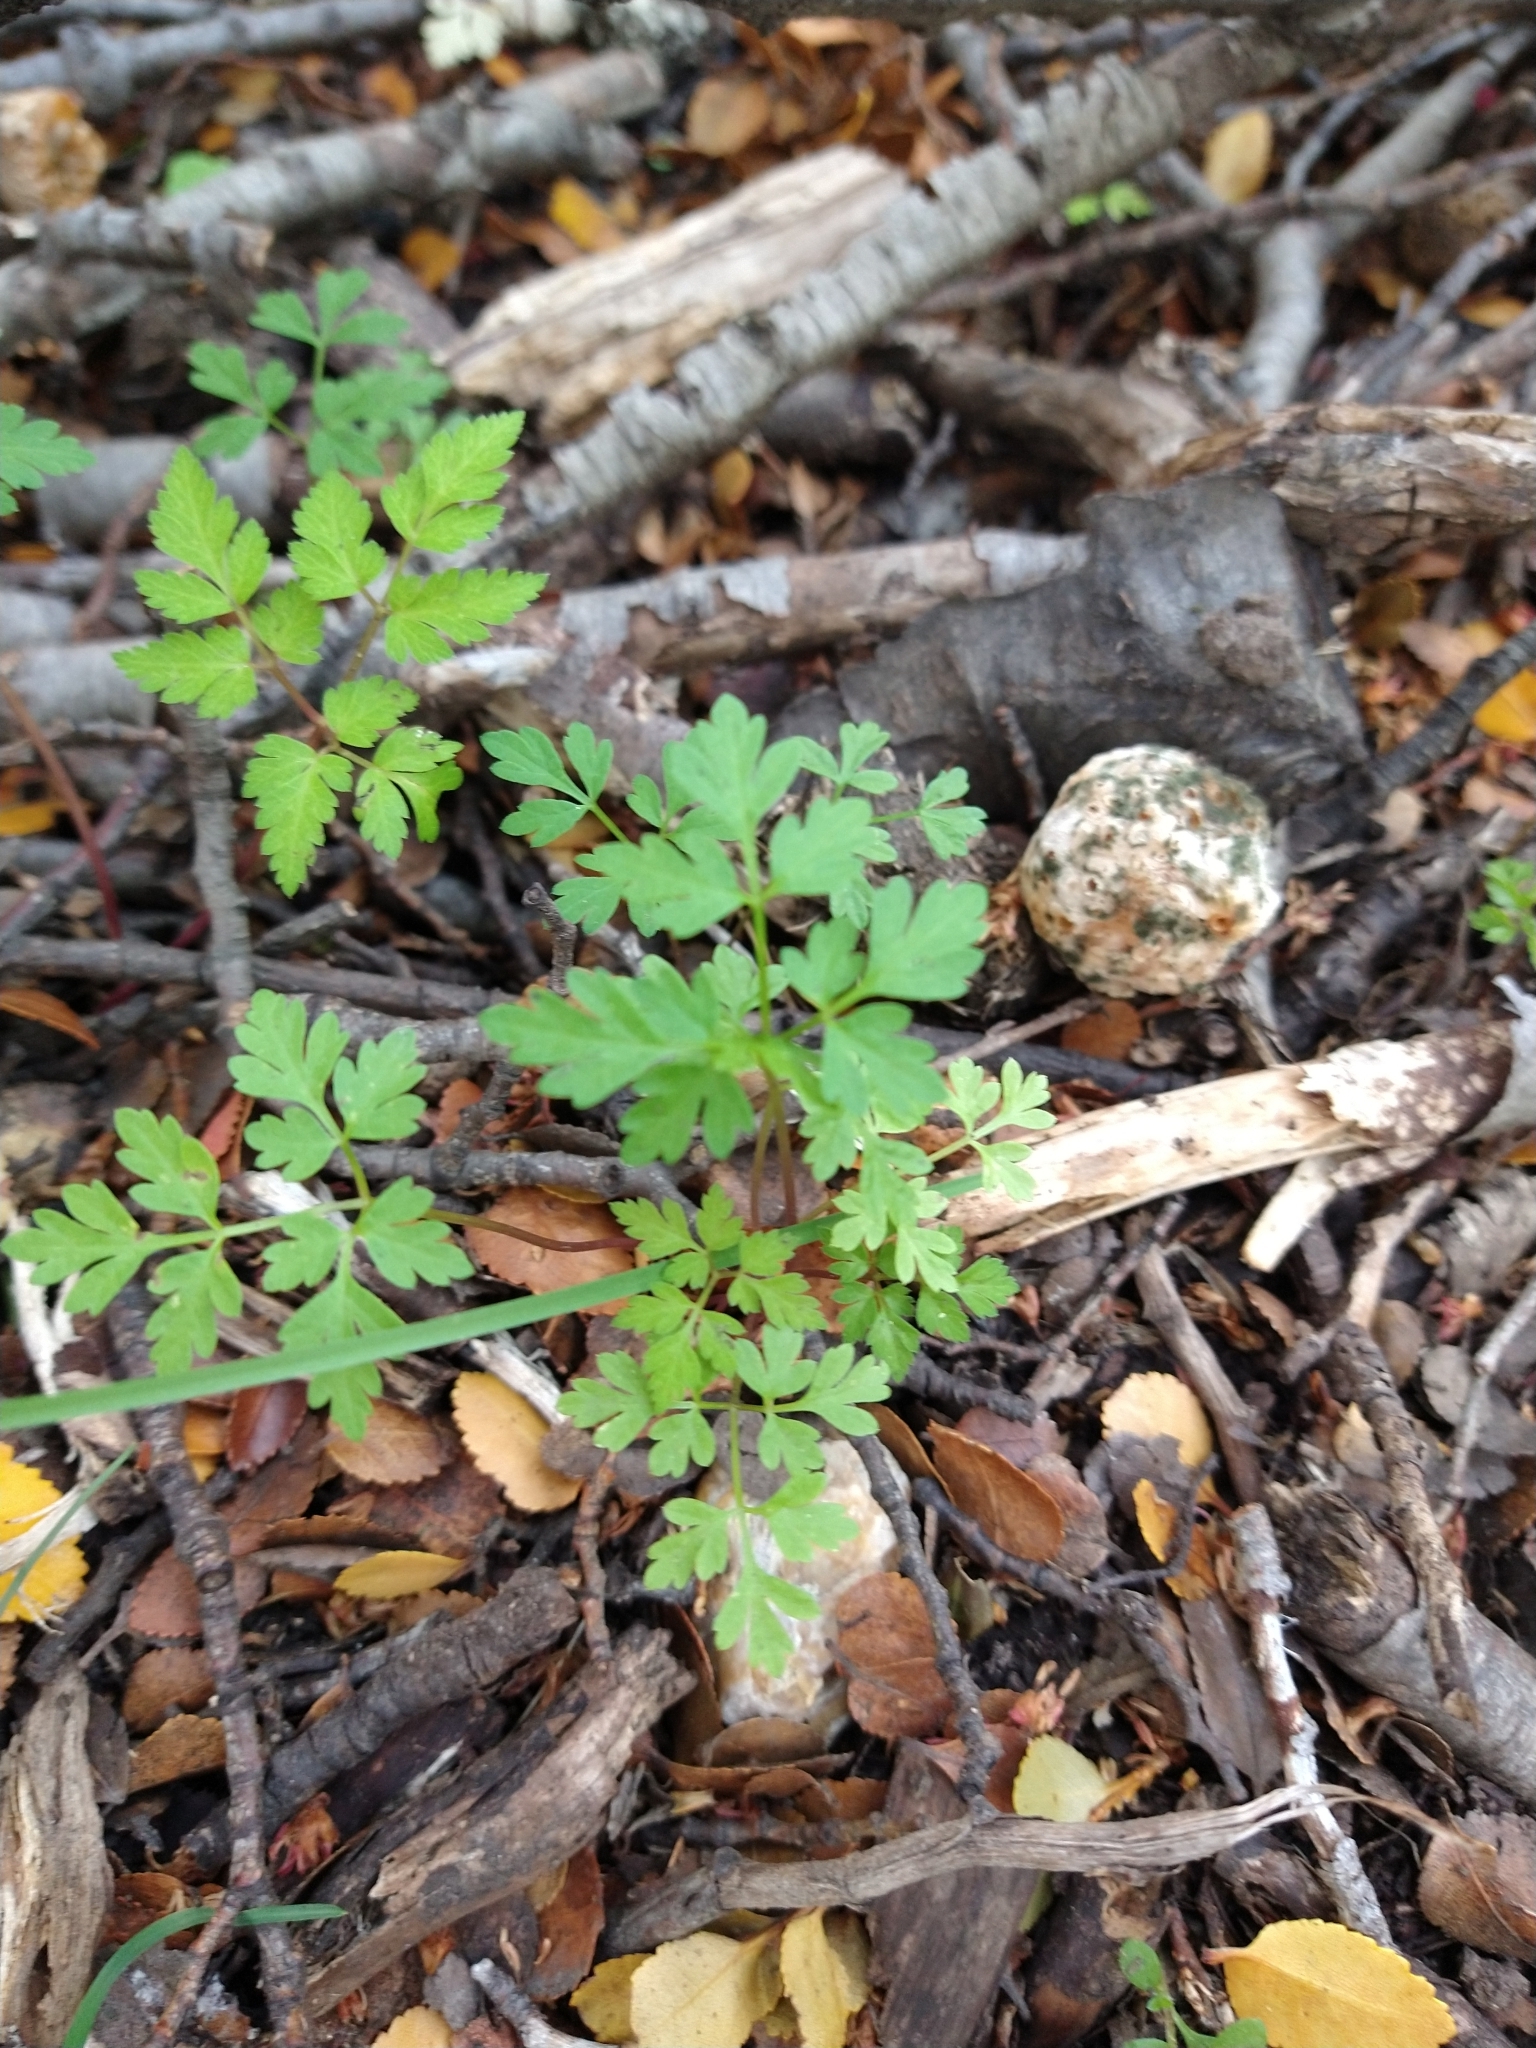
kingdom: Plantae
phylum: Tracheophyta
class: Magnoliopsida
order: Apiales
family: Apiaceae
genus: Osmorhiza
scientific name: Osmorhiza berteroi
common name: Mountain sweet cicely
